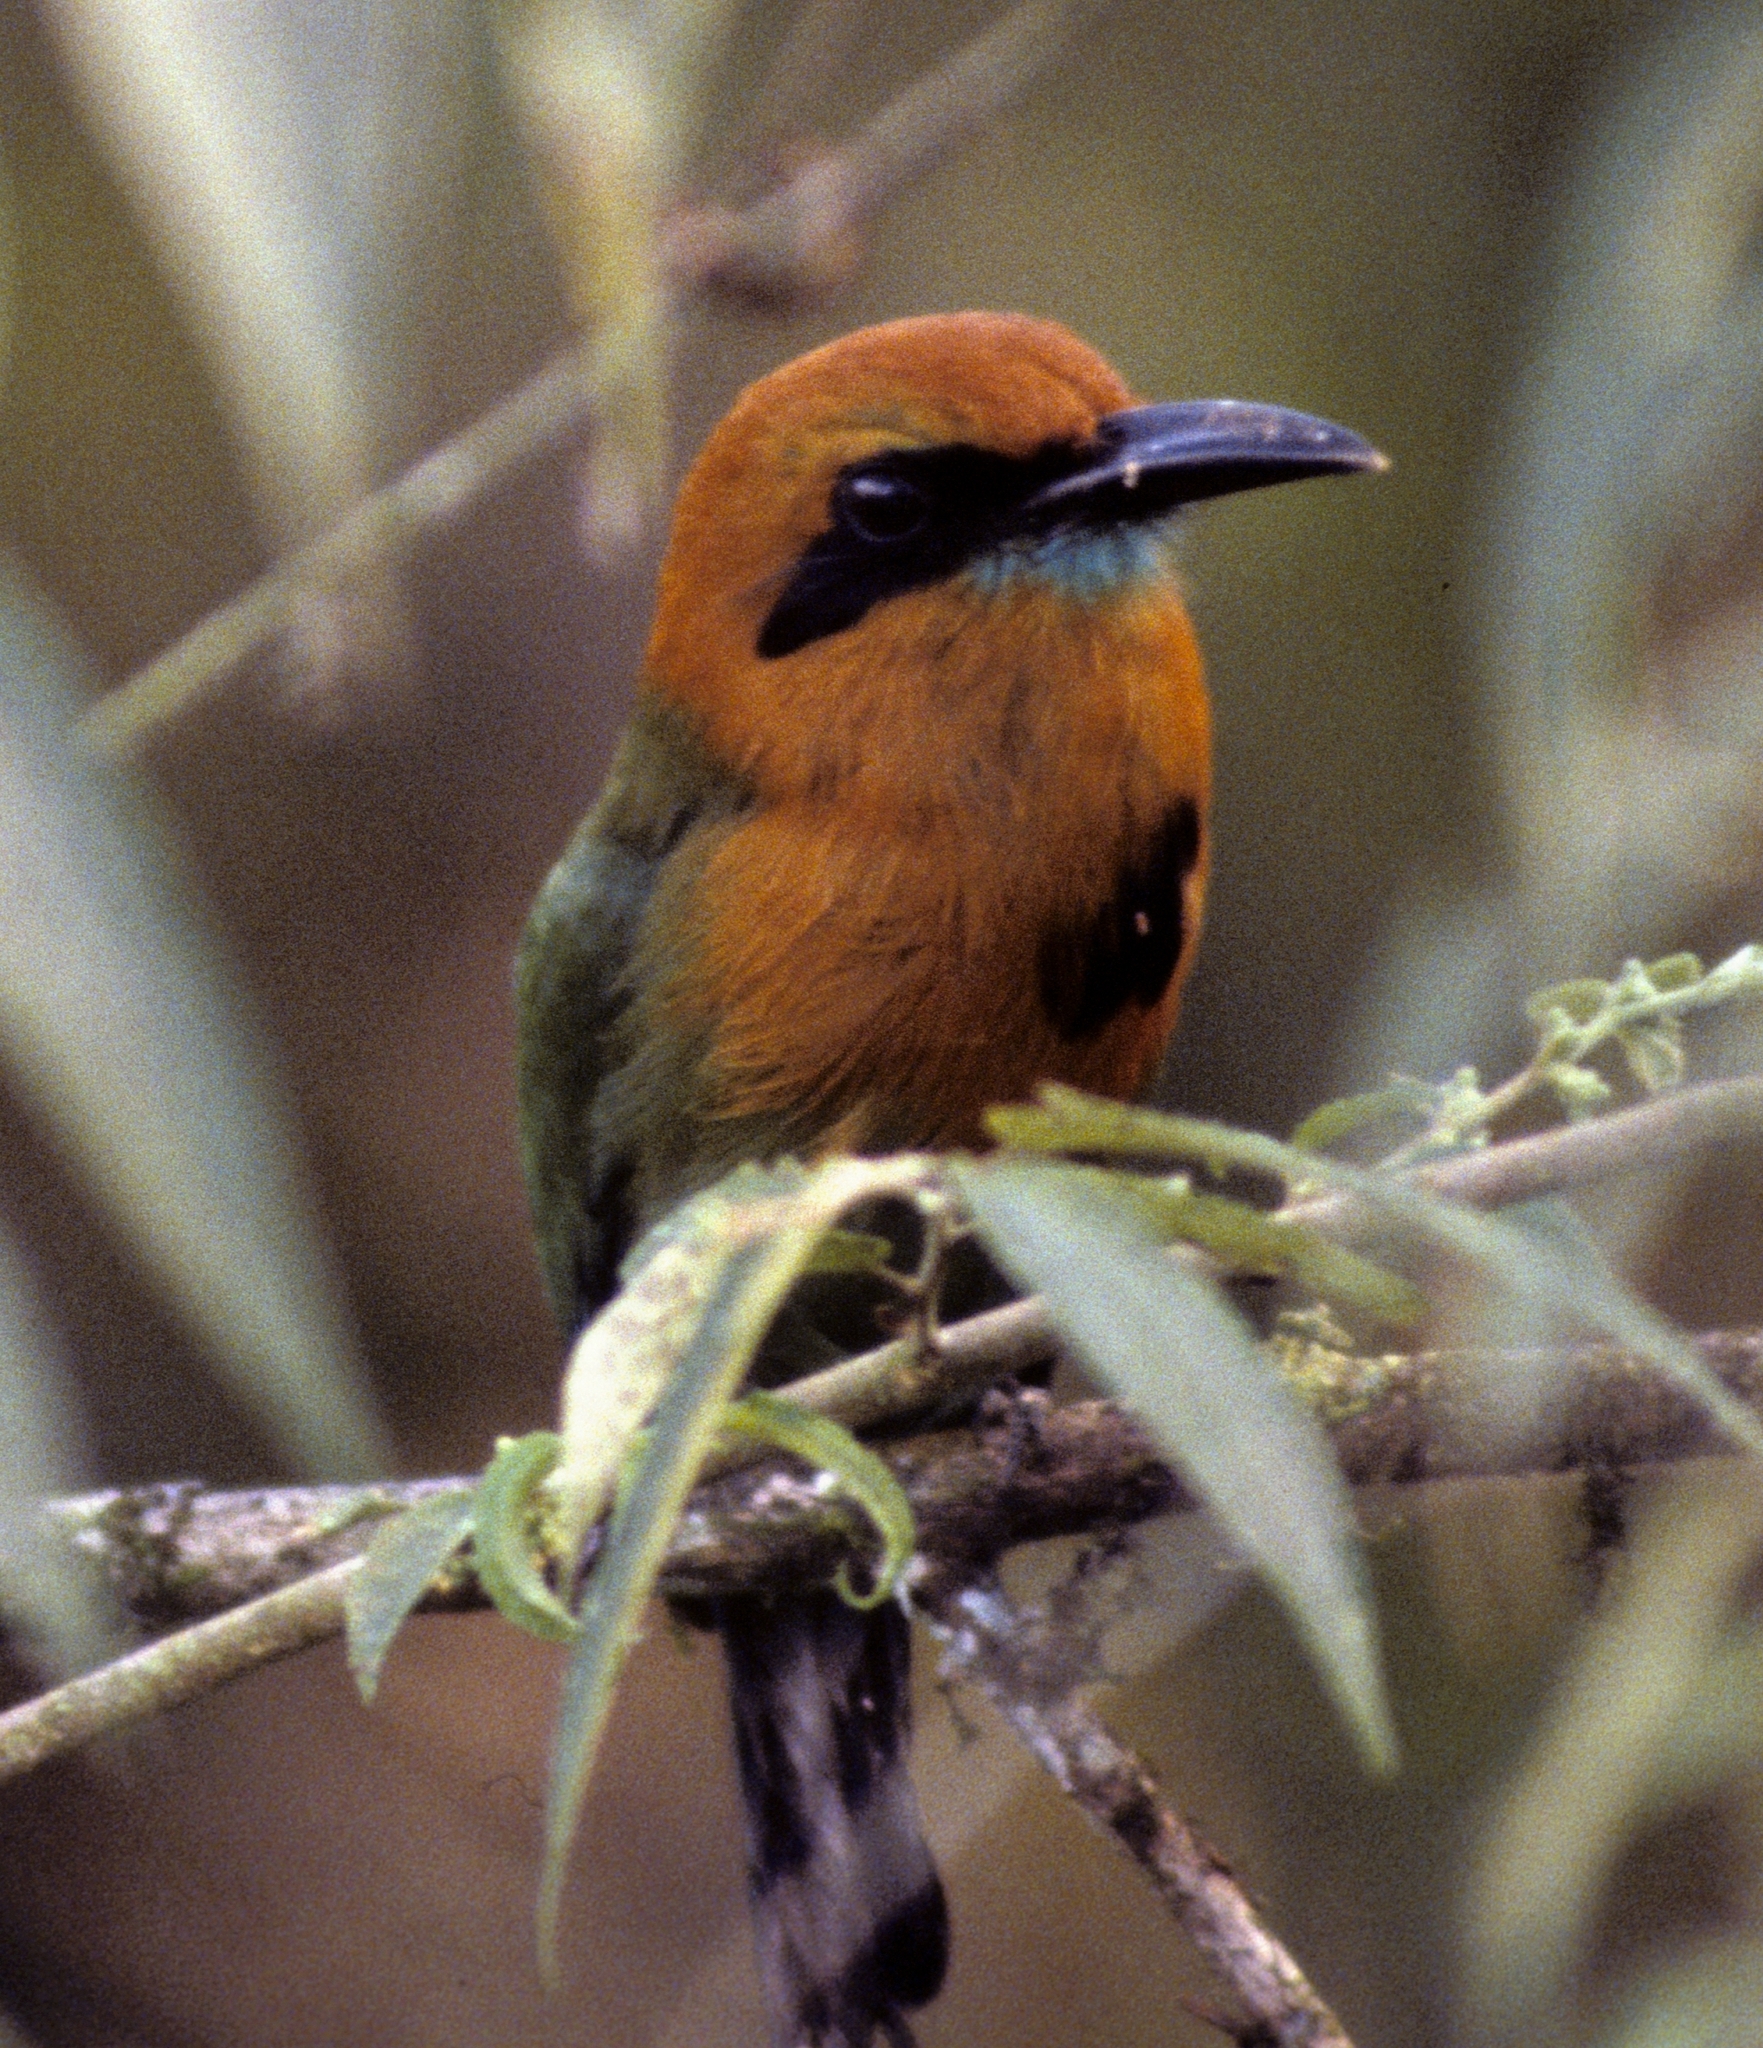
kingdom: Animalia
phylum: Chordata
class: Aves
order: Coraciiformes
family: Momotidae
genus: Electron
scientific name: Electron platyrhynchum
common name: Broad-billed motmot
